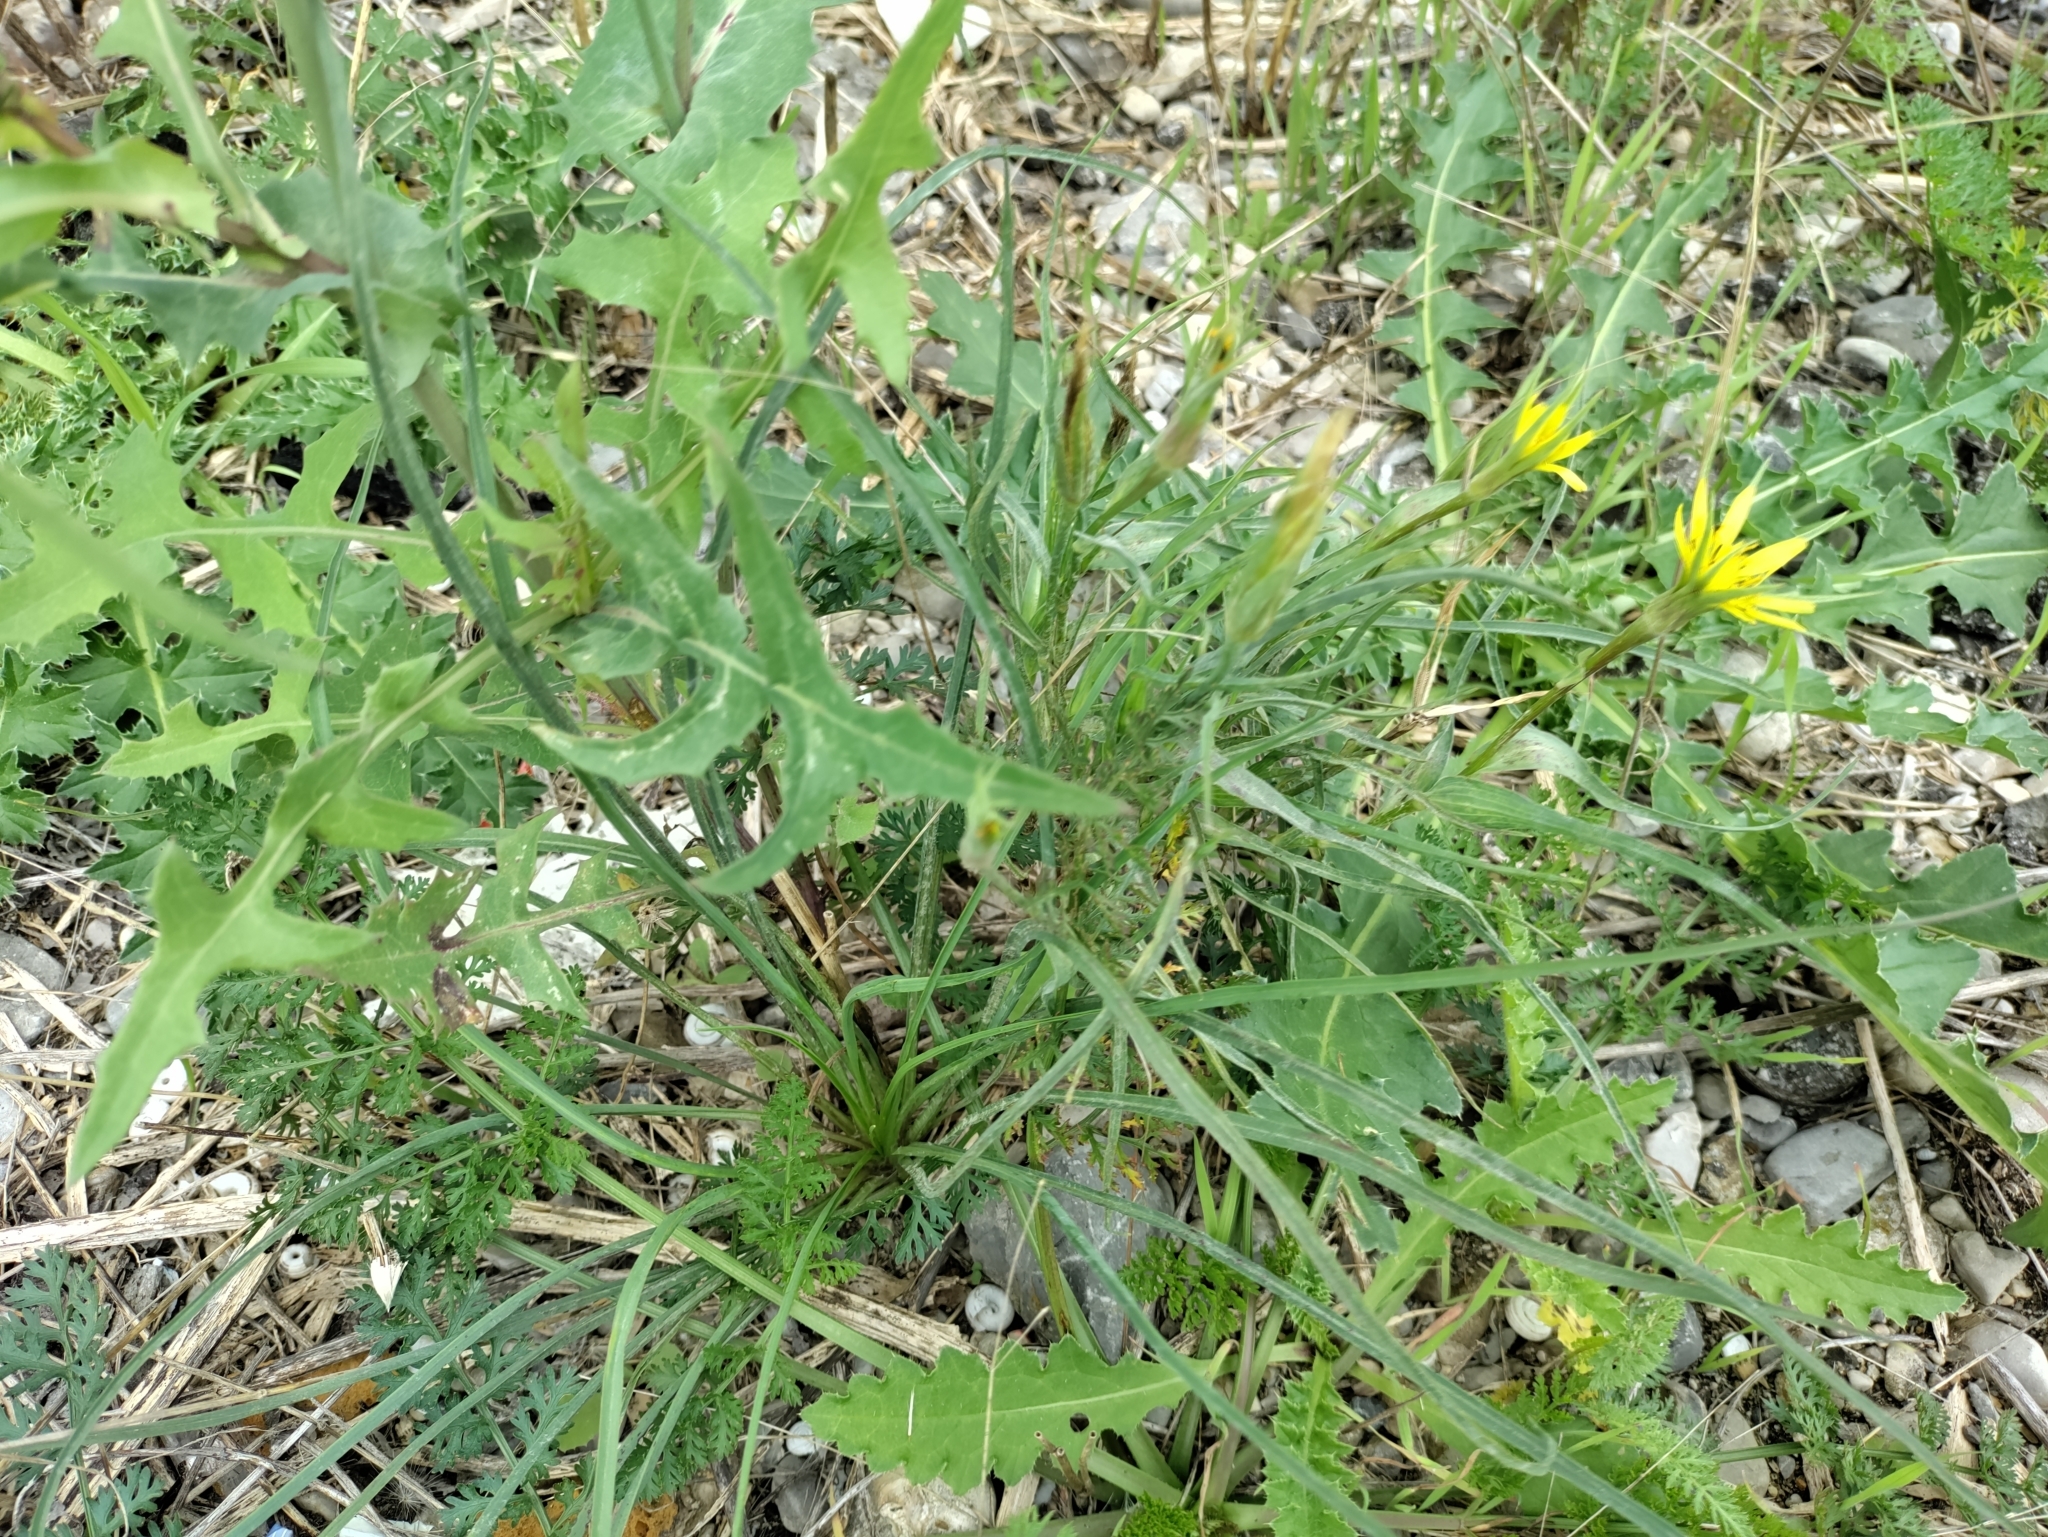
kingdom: Plantae
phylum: Tracheophyta
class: Magnoliopsida
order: Asterales
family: Asteraceae
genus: Tragopogon
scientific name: Tragopogon dubius
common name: Yellow salsify
